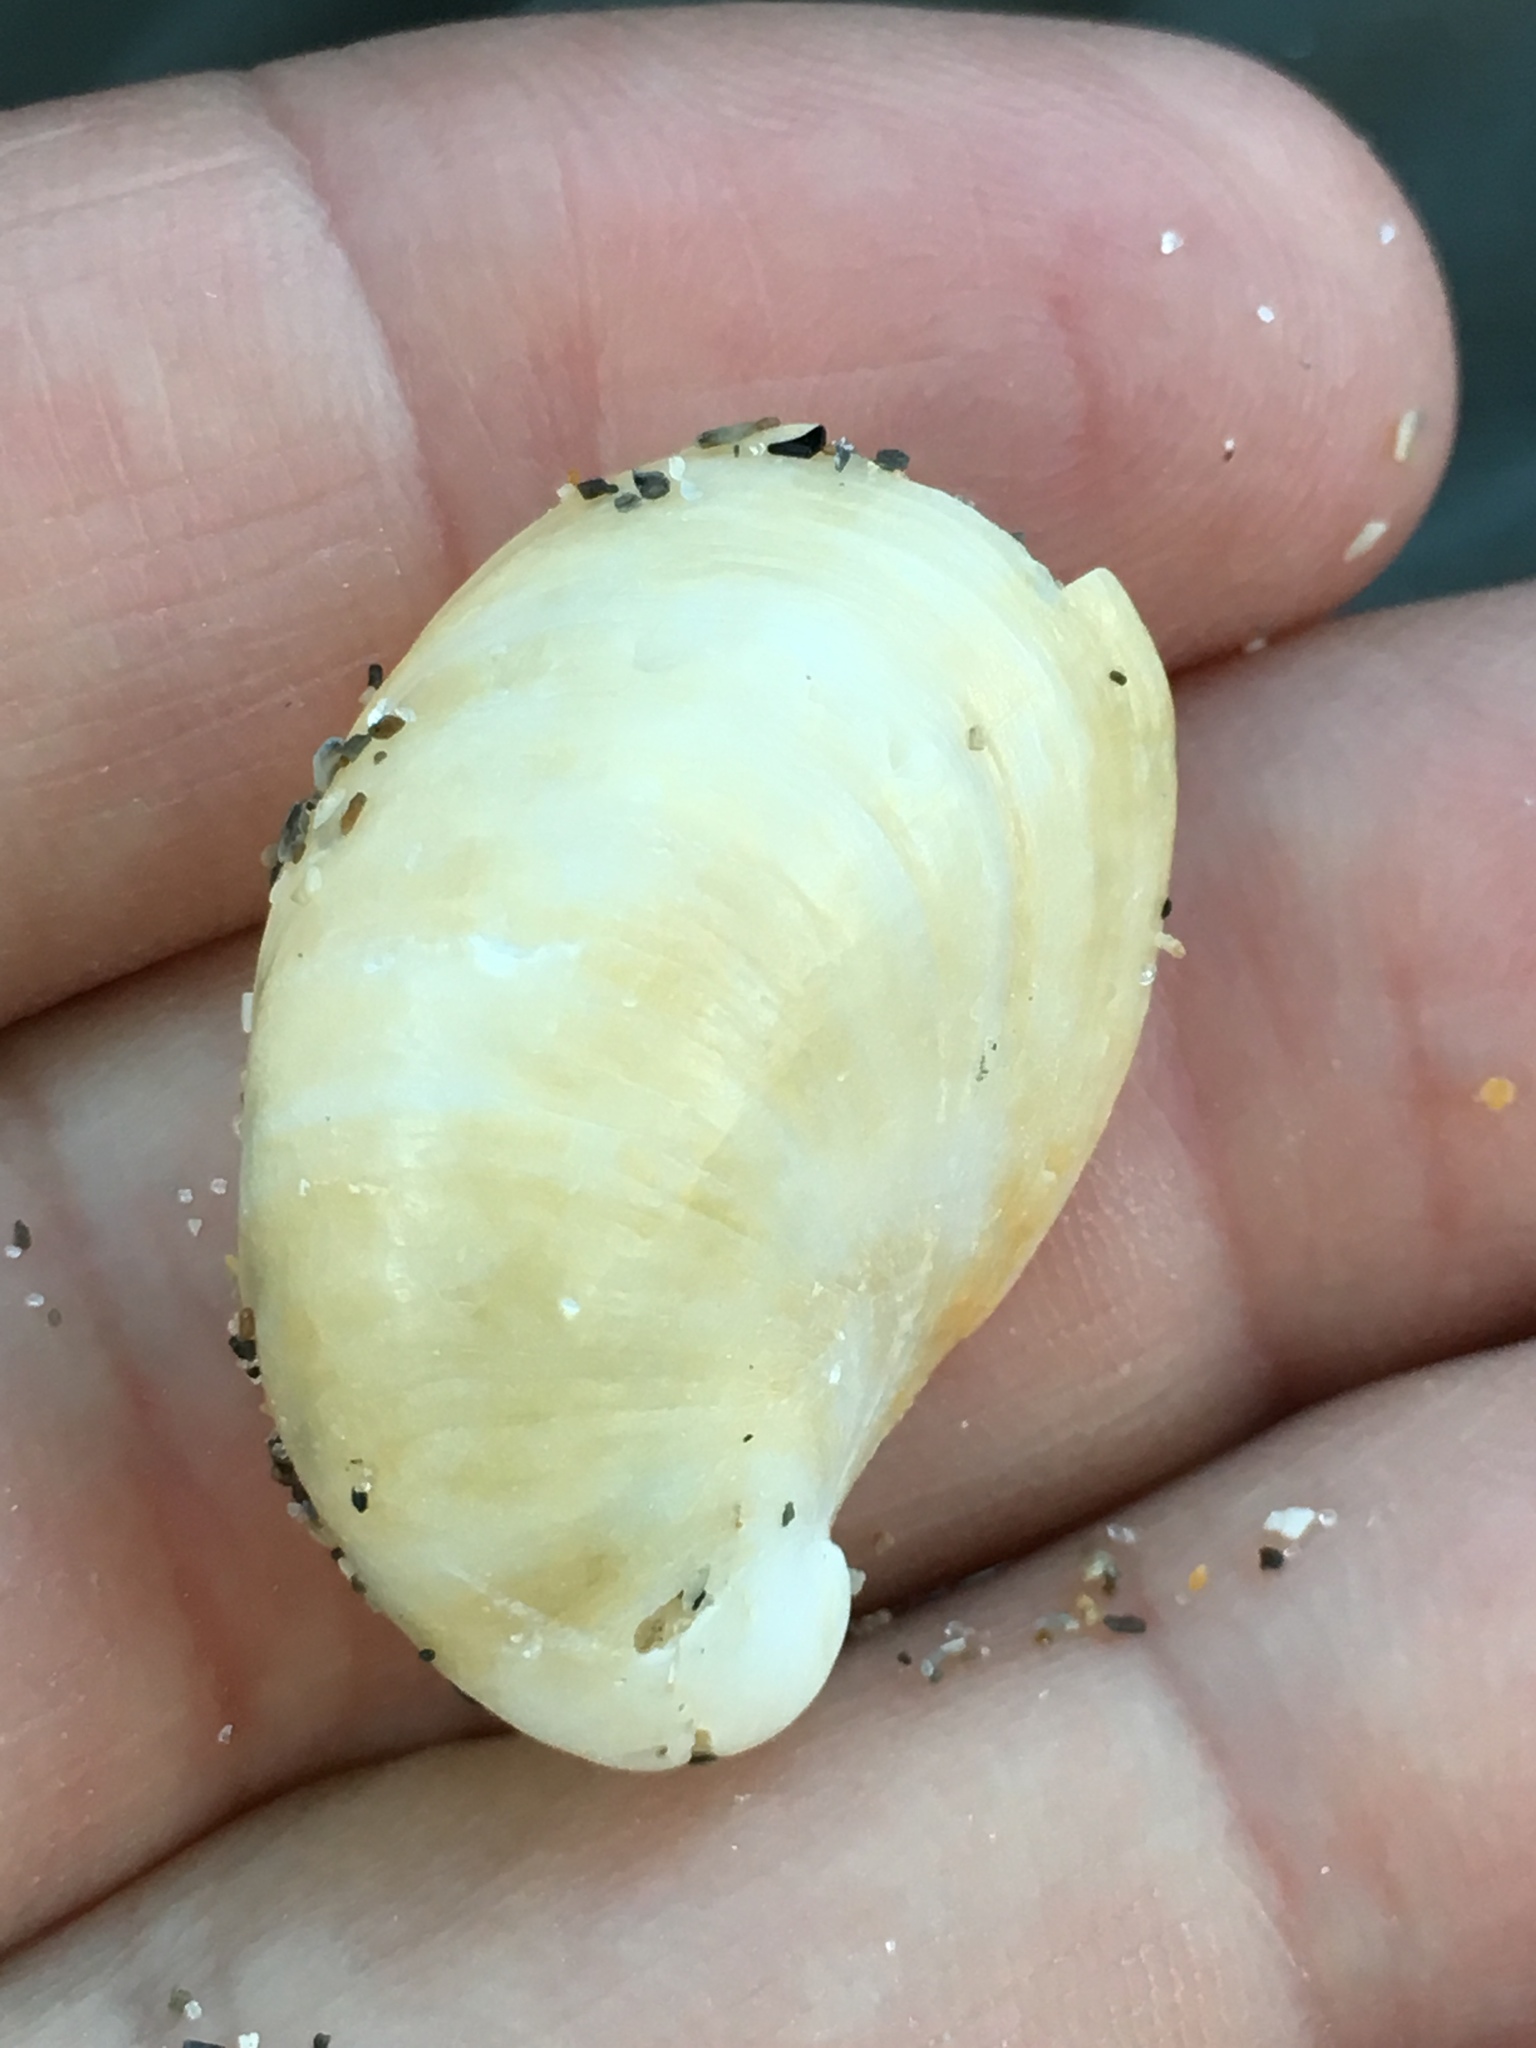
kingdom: Animalia
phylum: Mollusca
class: Gastropoda
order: Littorinimorpha
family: Calyptraeidae
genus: Crepidula
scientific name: Crepidula fornicata
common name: Slipper limpet
